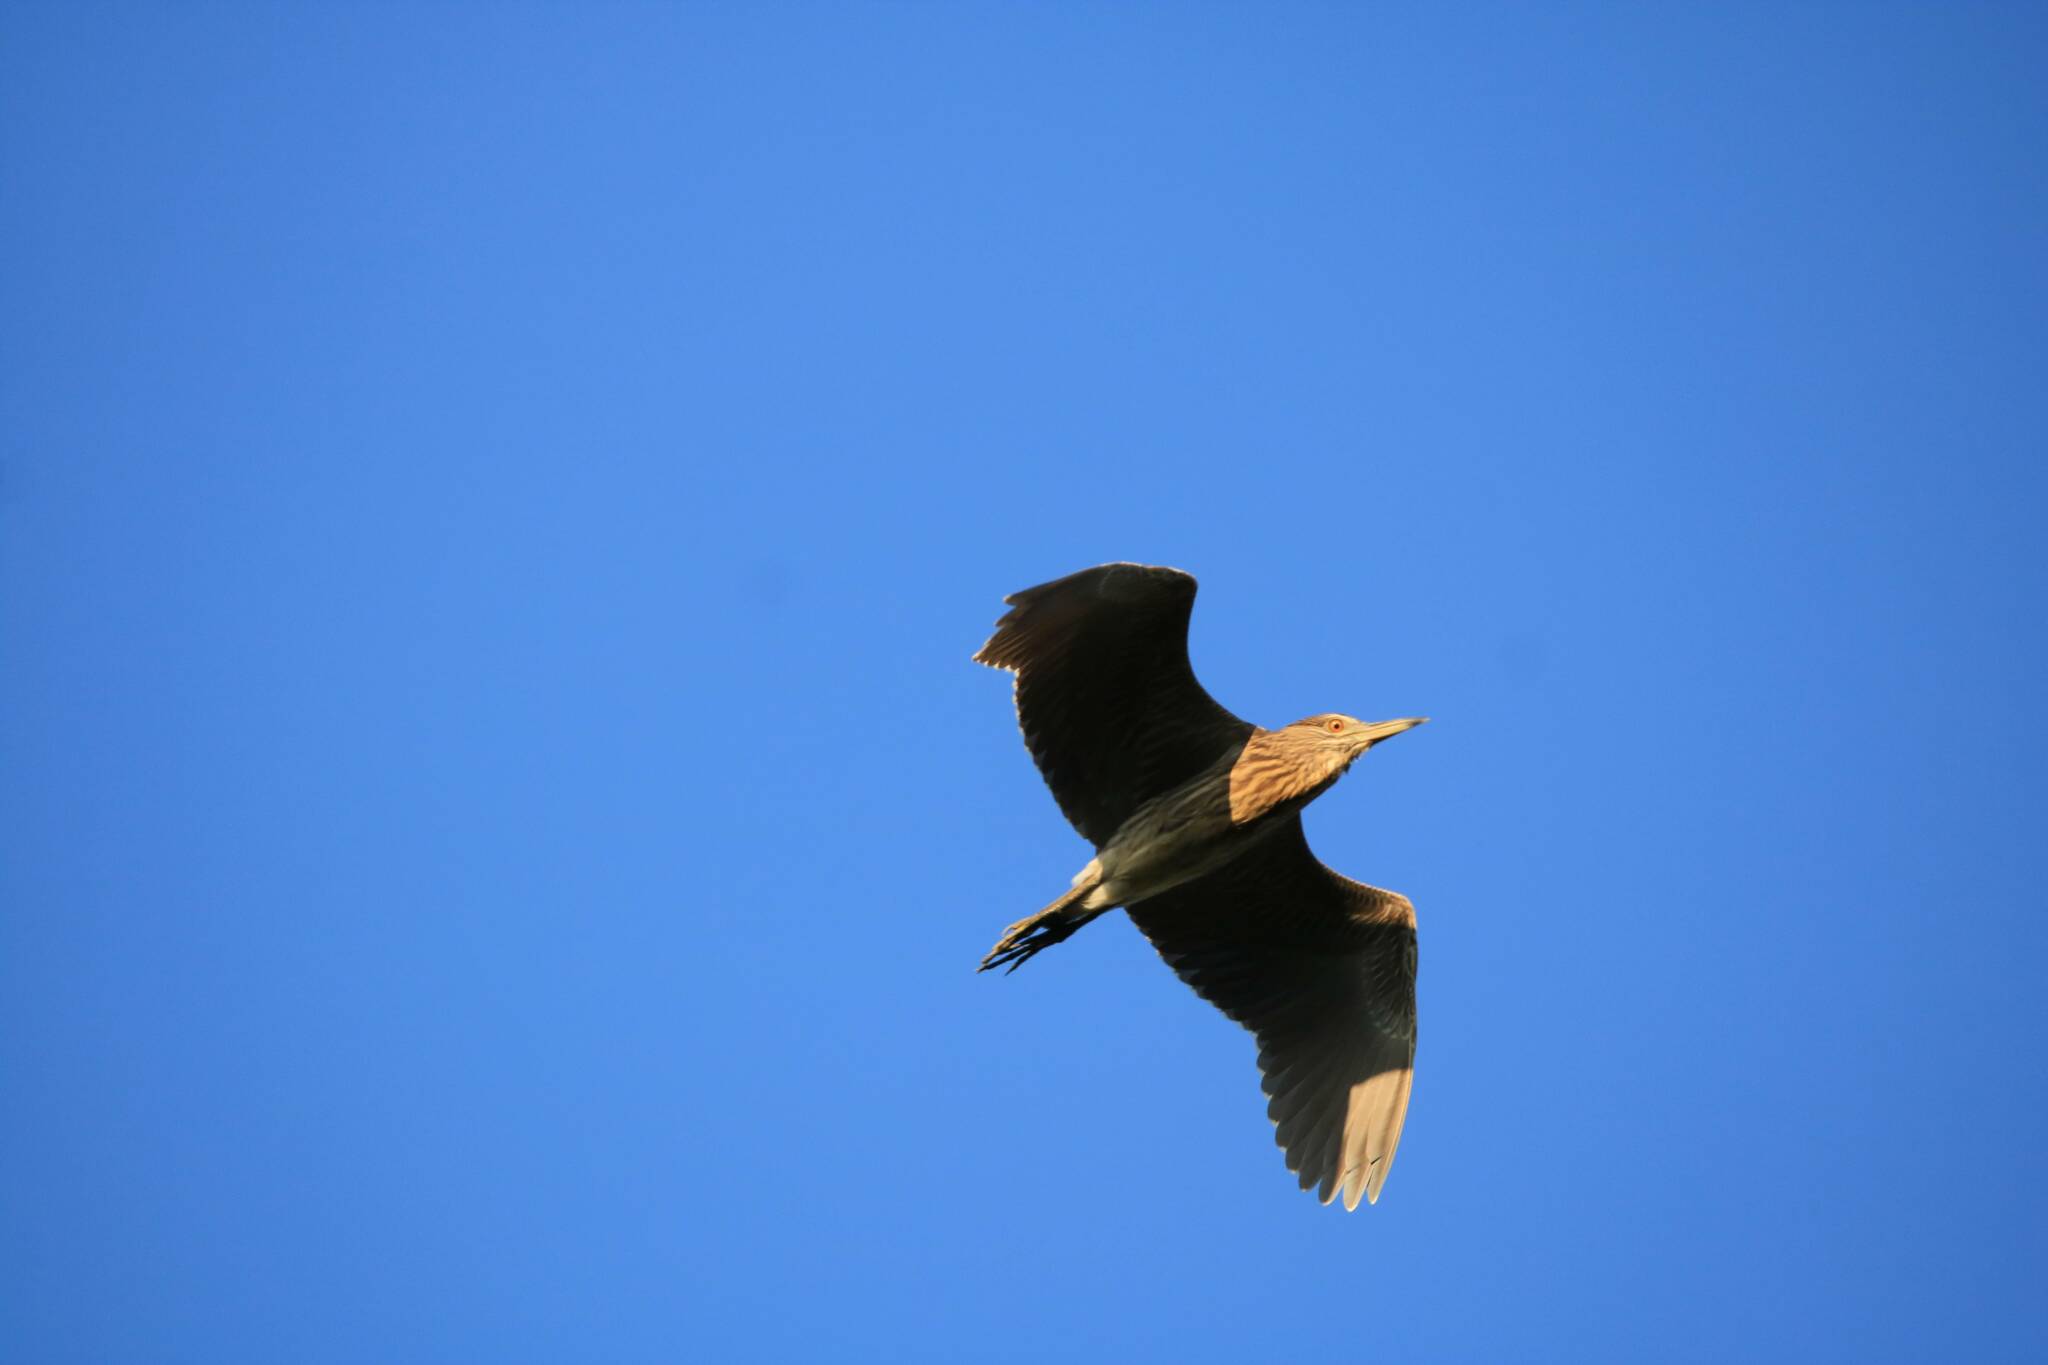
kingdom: Animalia
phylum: Chordata
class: Aves
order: Pelecaniformes
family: Ardeidae
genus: Nycticorax
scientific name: Nycticorax nycticorax
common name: Black-crowned night heron
